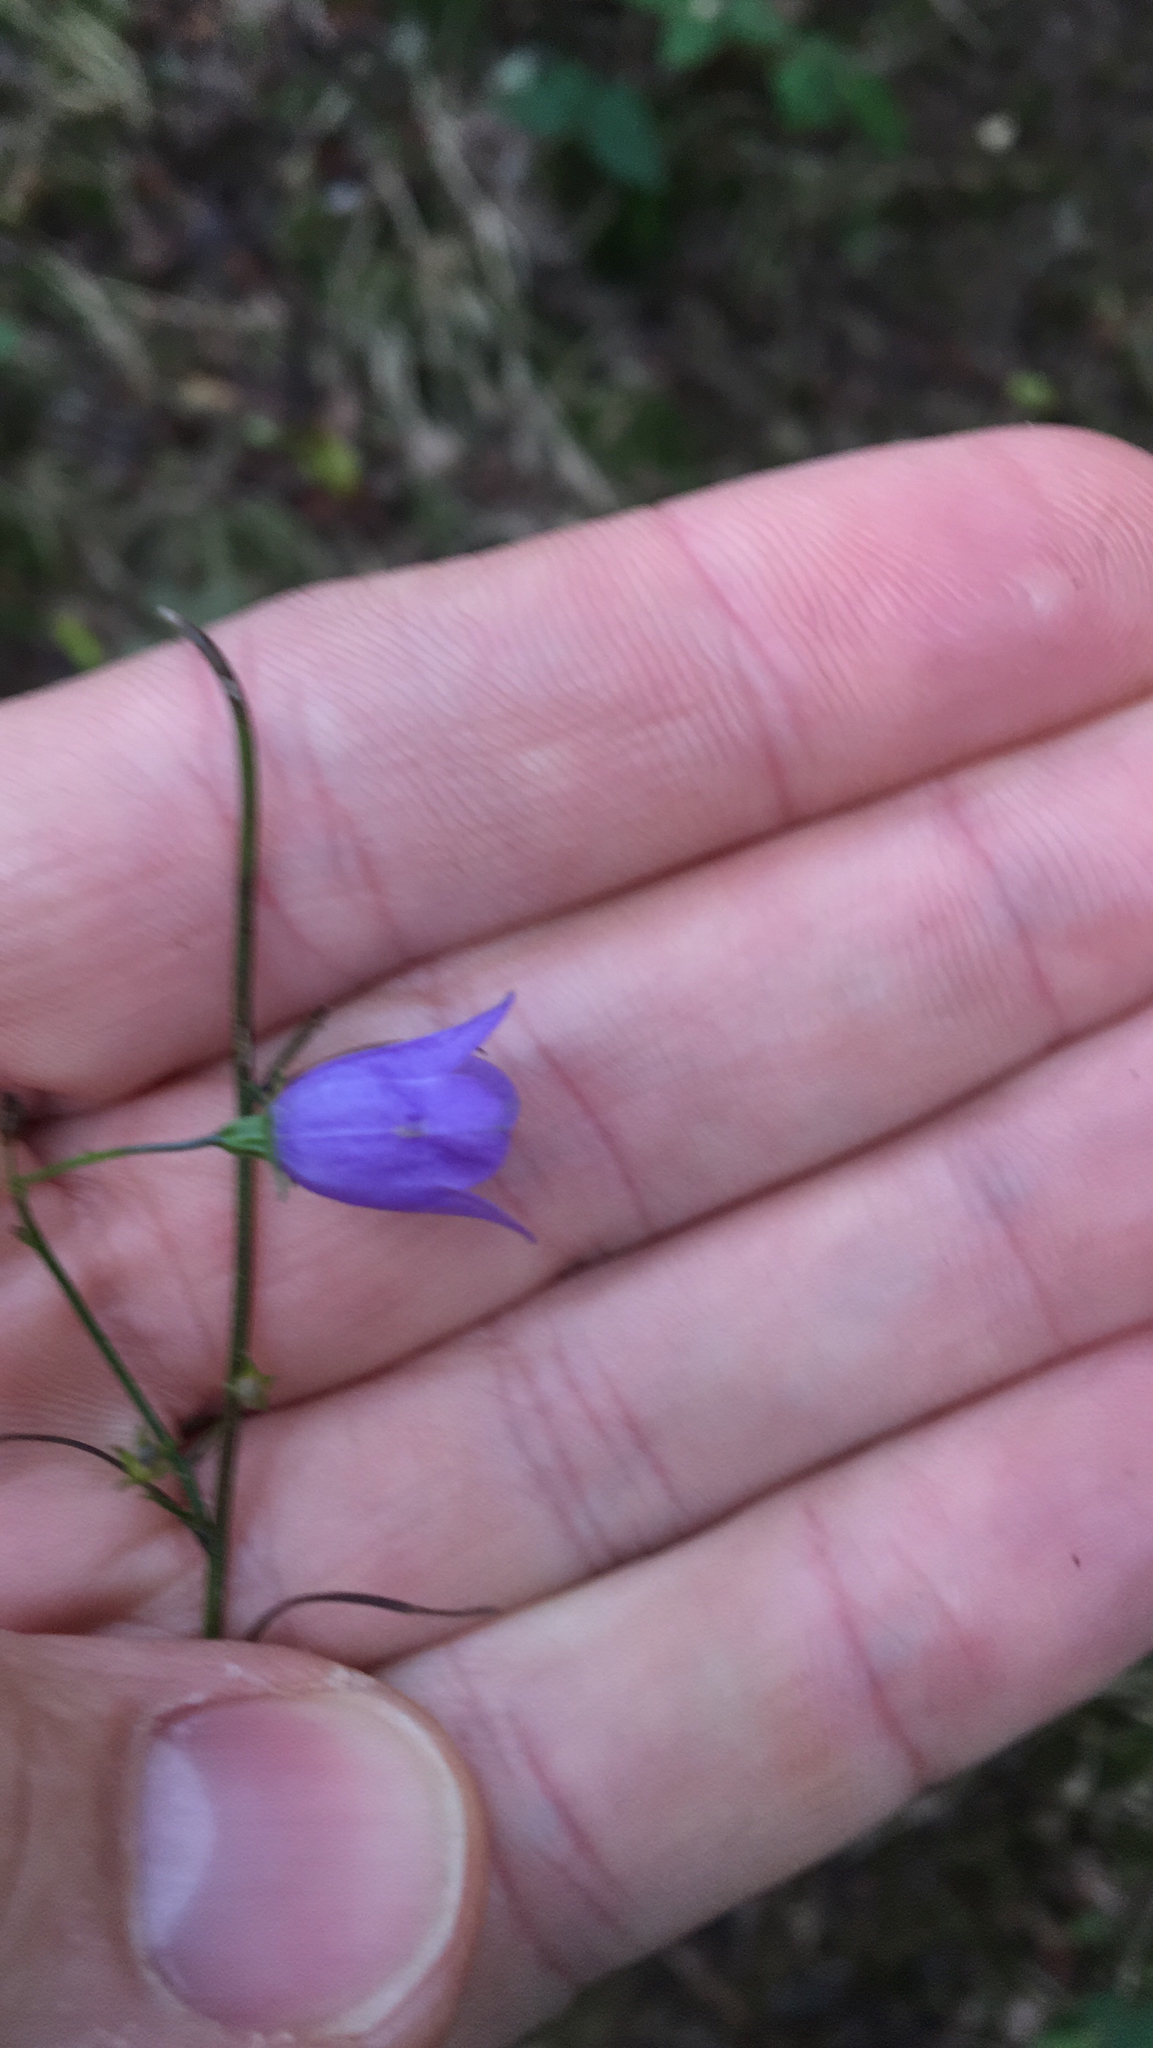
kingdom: Plantae
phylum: Tracheophyta
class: Magnoliopsida
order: Asterales
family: Campanulaceae
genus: Campanula
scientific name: Campanula rotundifolia
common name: Harebell
